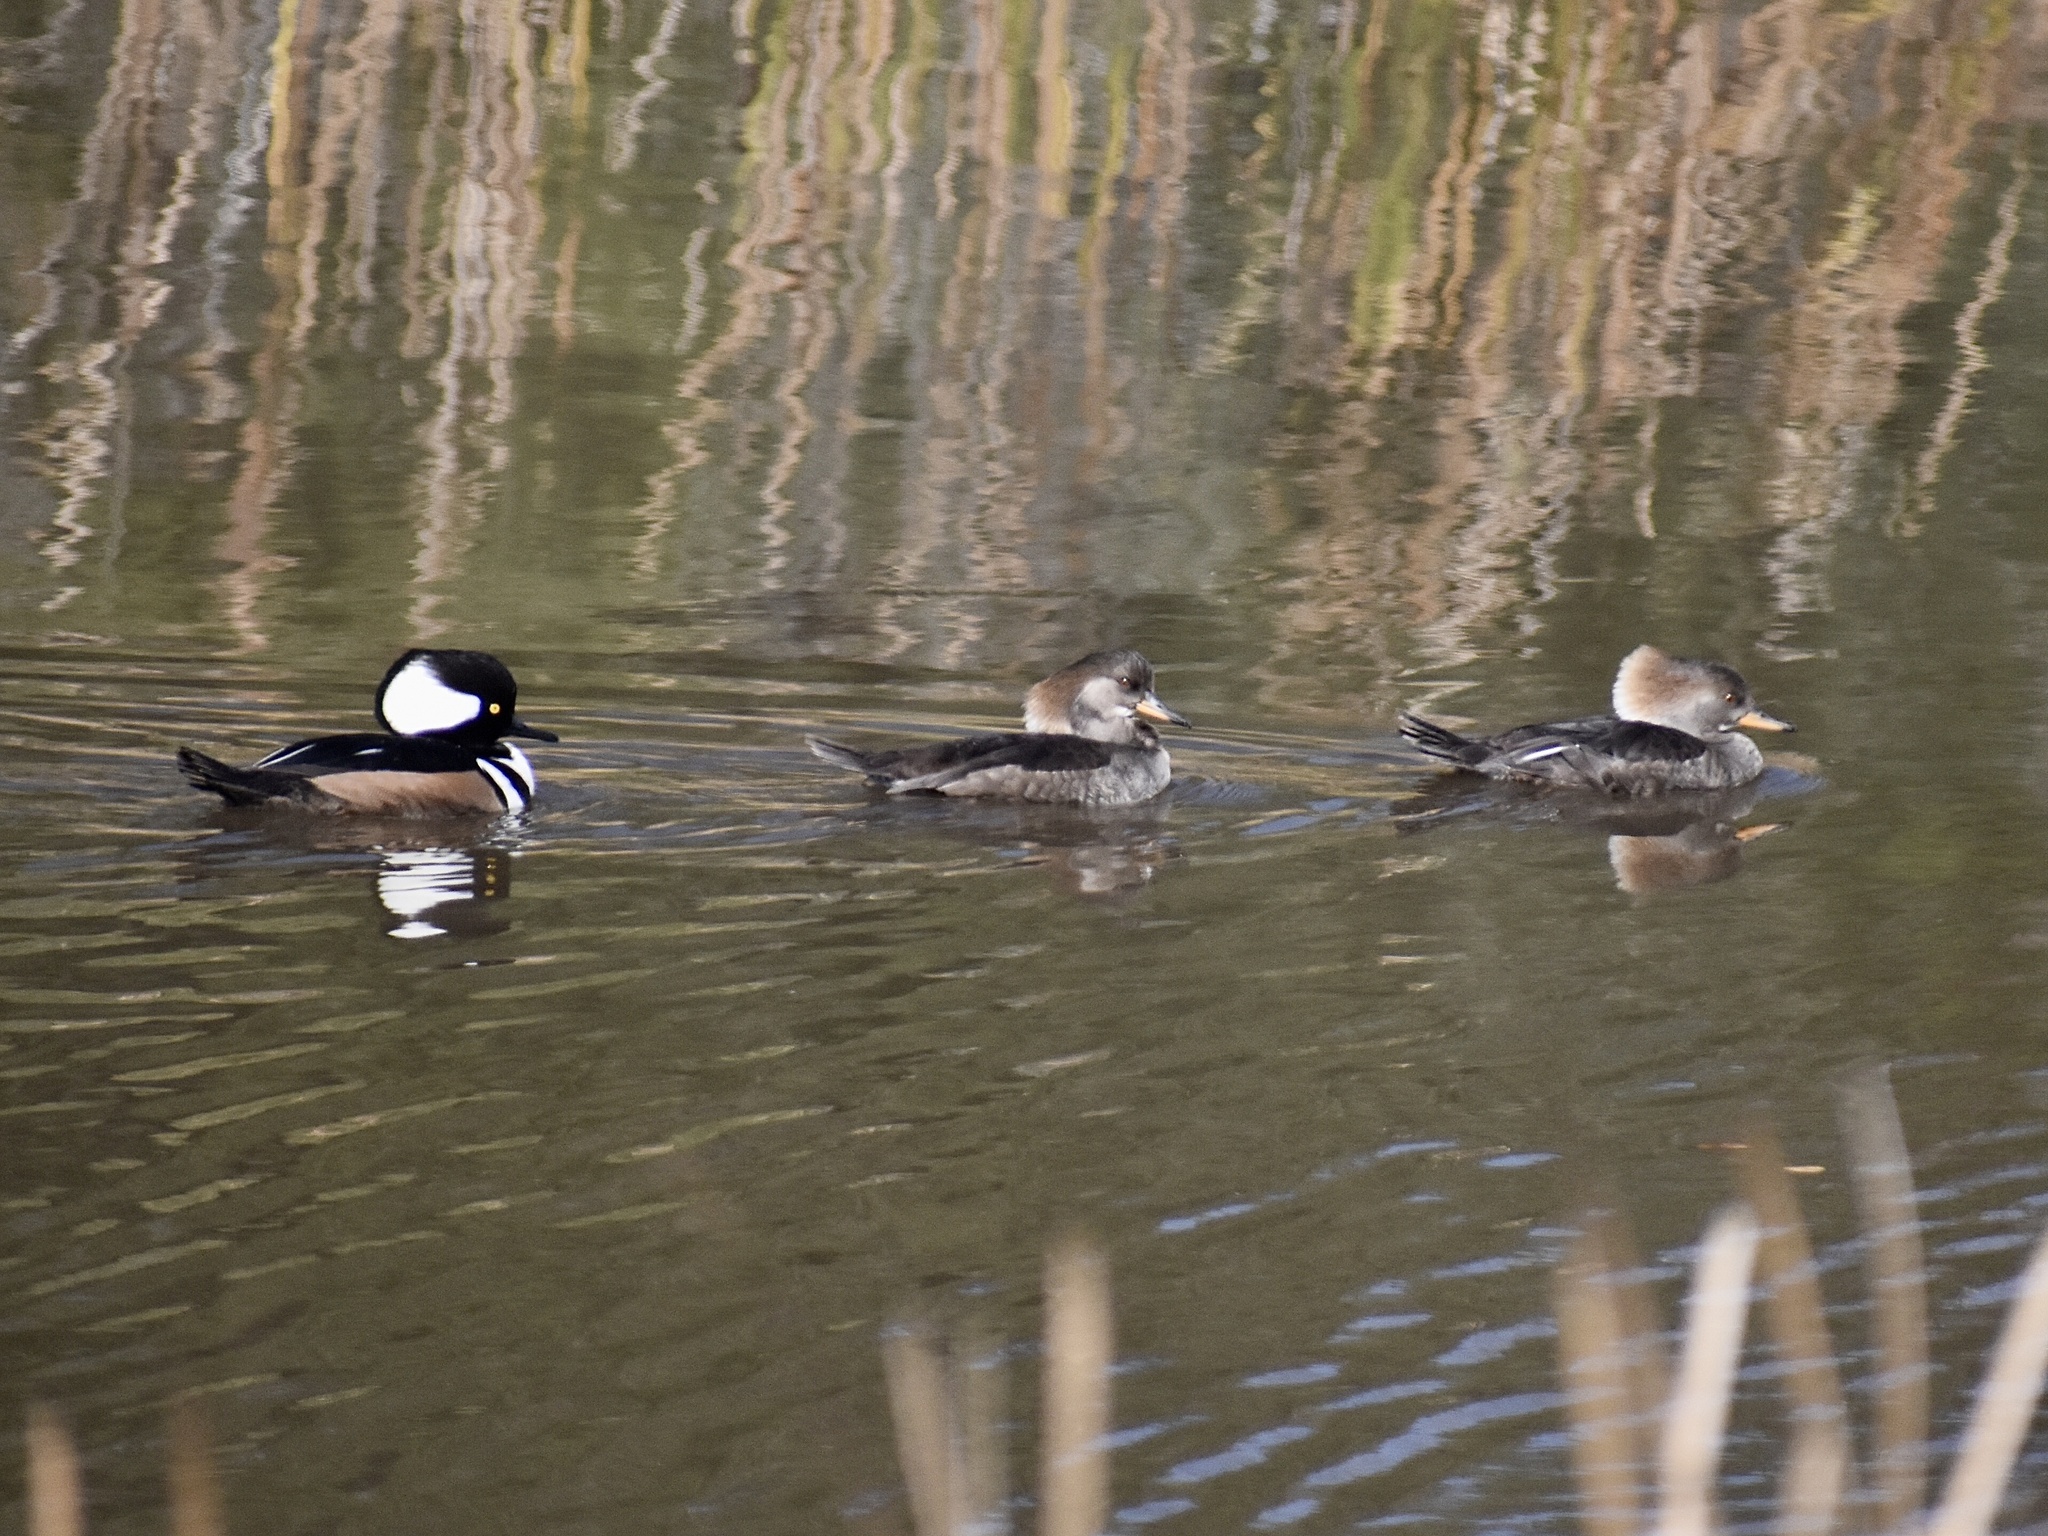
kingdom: Animalia
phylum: Chordata
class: Aves
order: Anseriformes
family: Anatidae
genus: Lophodytes
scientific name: Lophodytes cucullatus
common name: Hooded merganser
